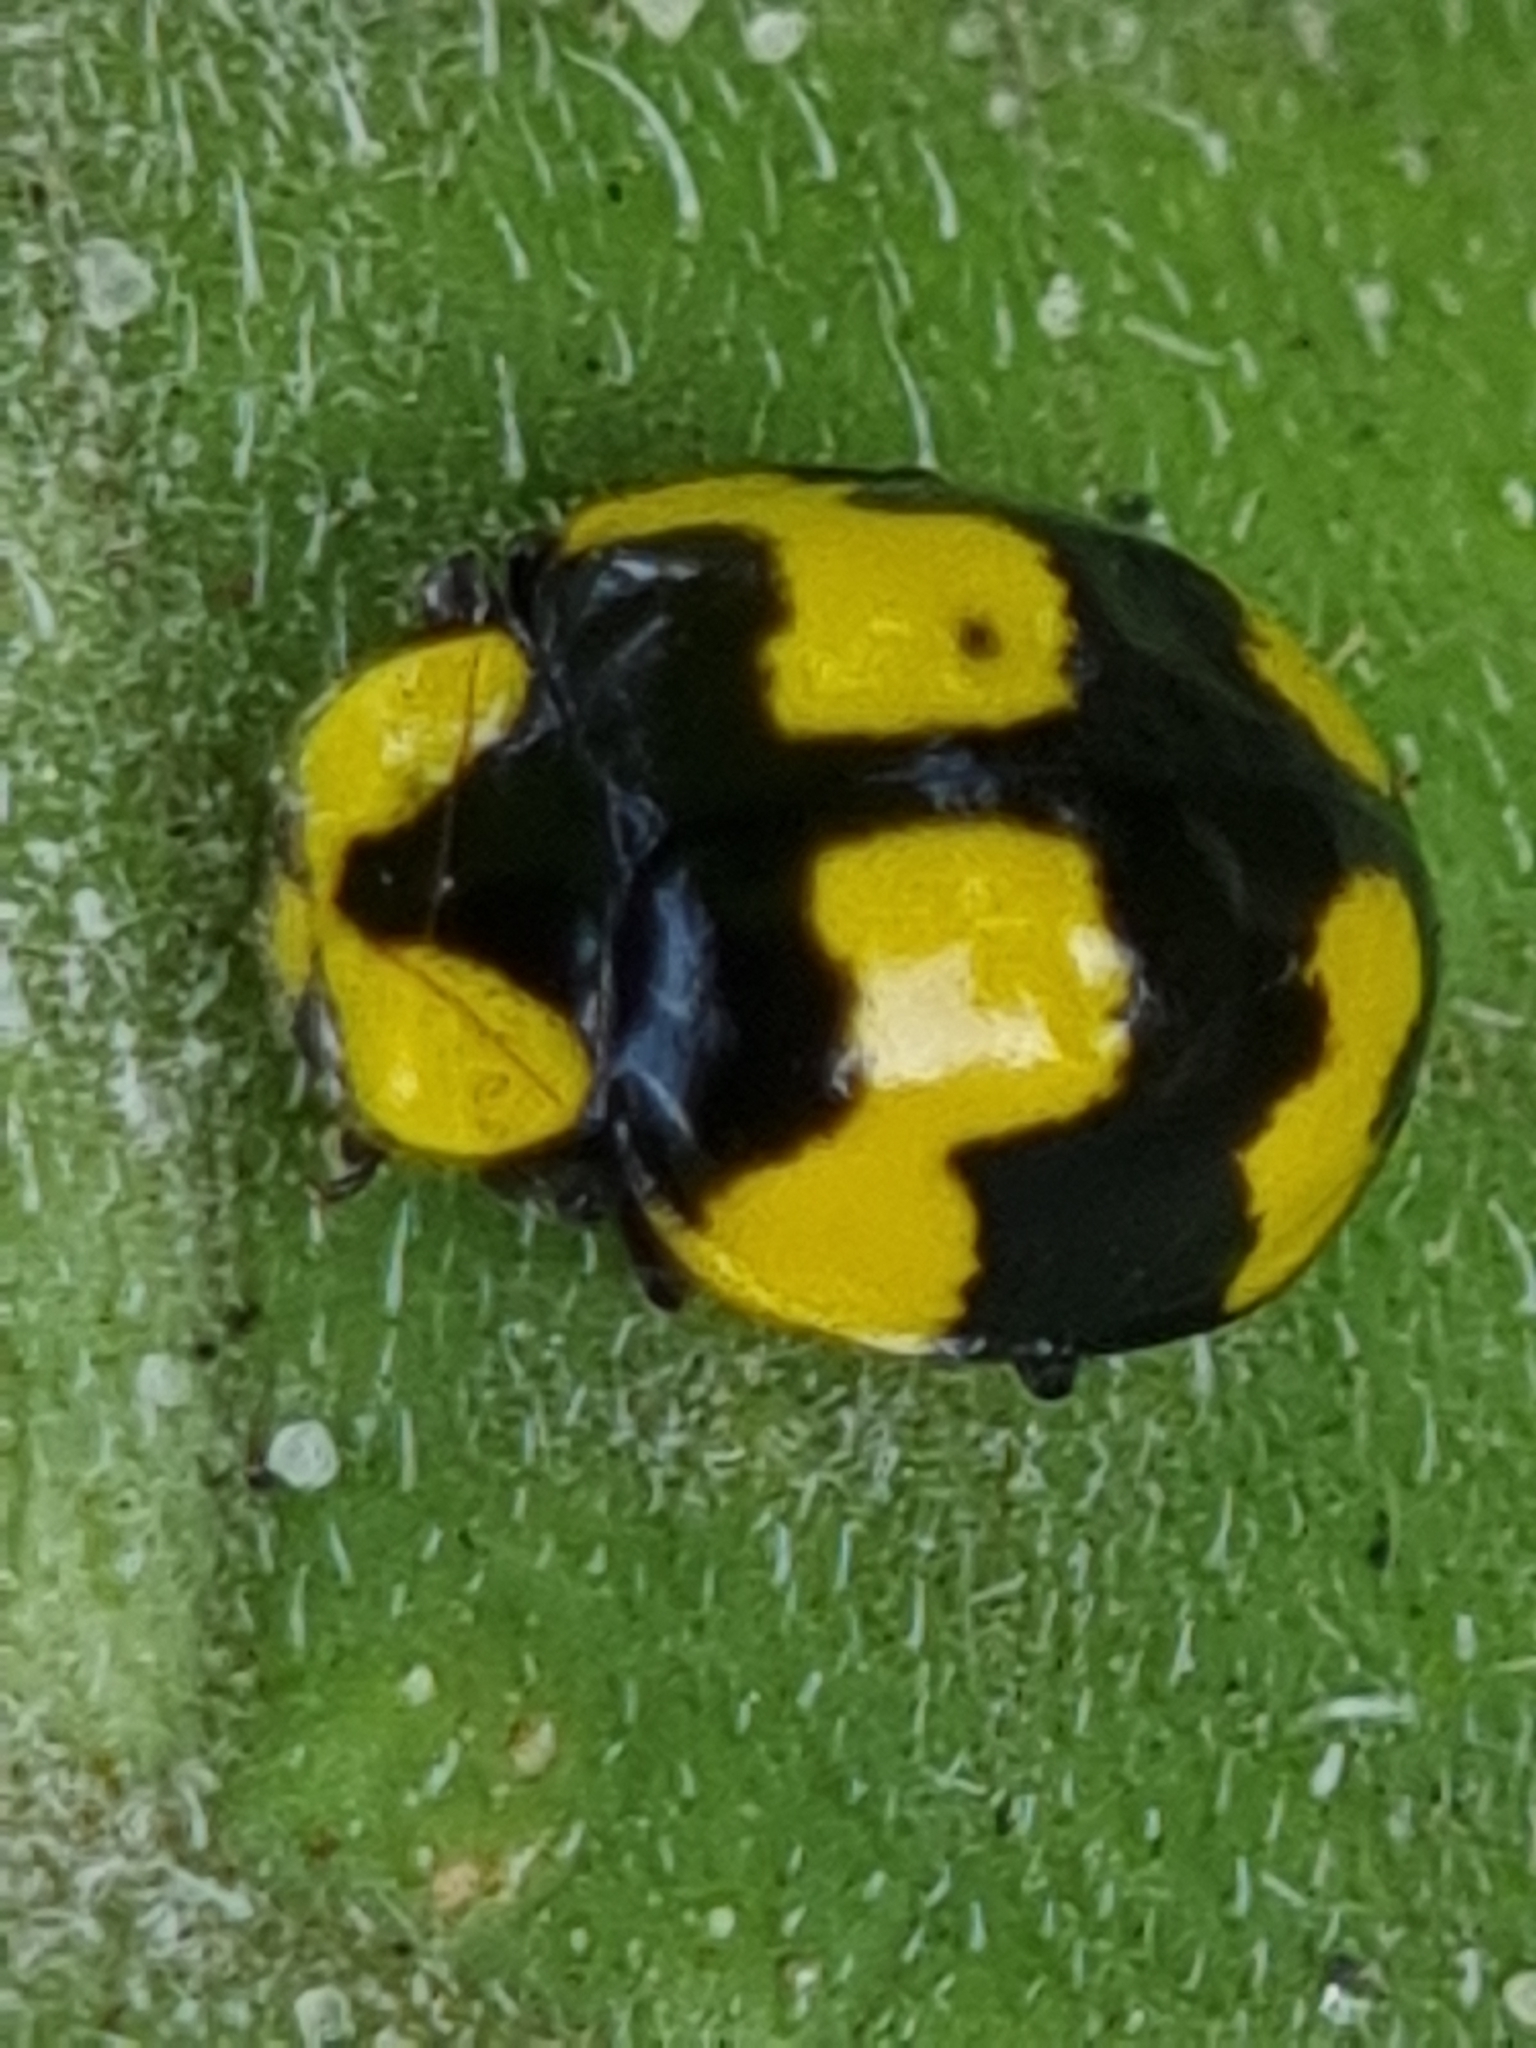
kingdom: Animalia
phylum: Arthropoda
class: Insecta
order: Coleoptera
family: Coccinellidae
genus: Illeis
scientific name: Illeis galbula
